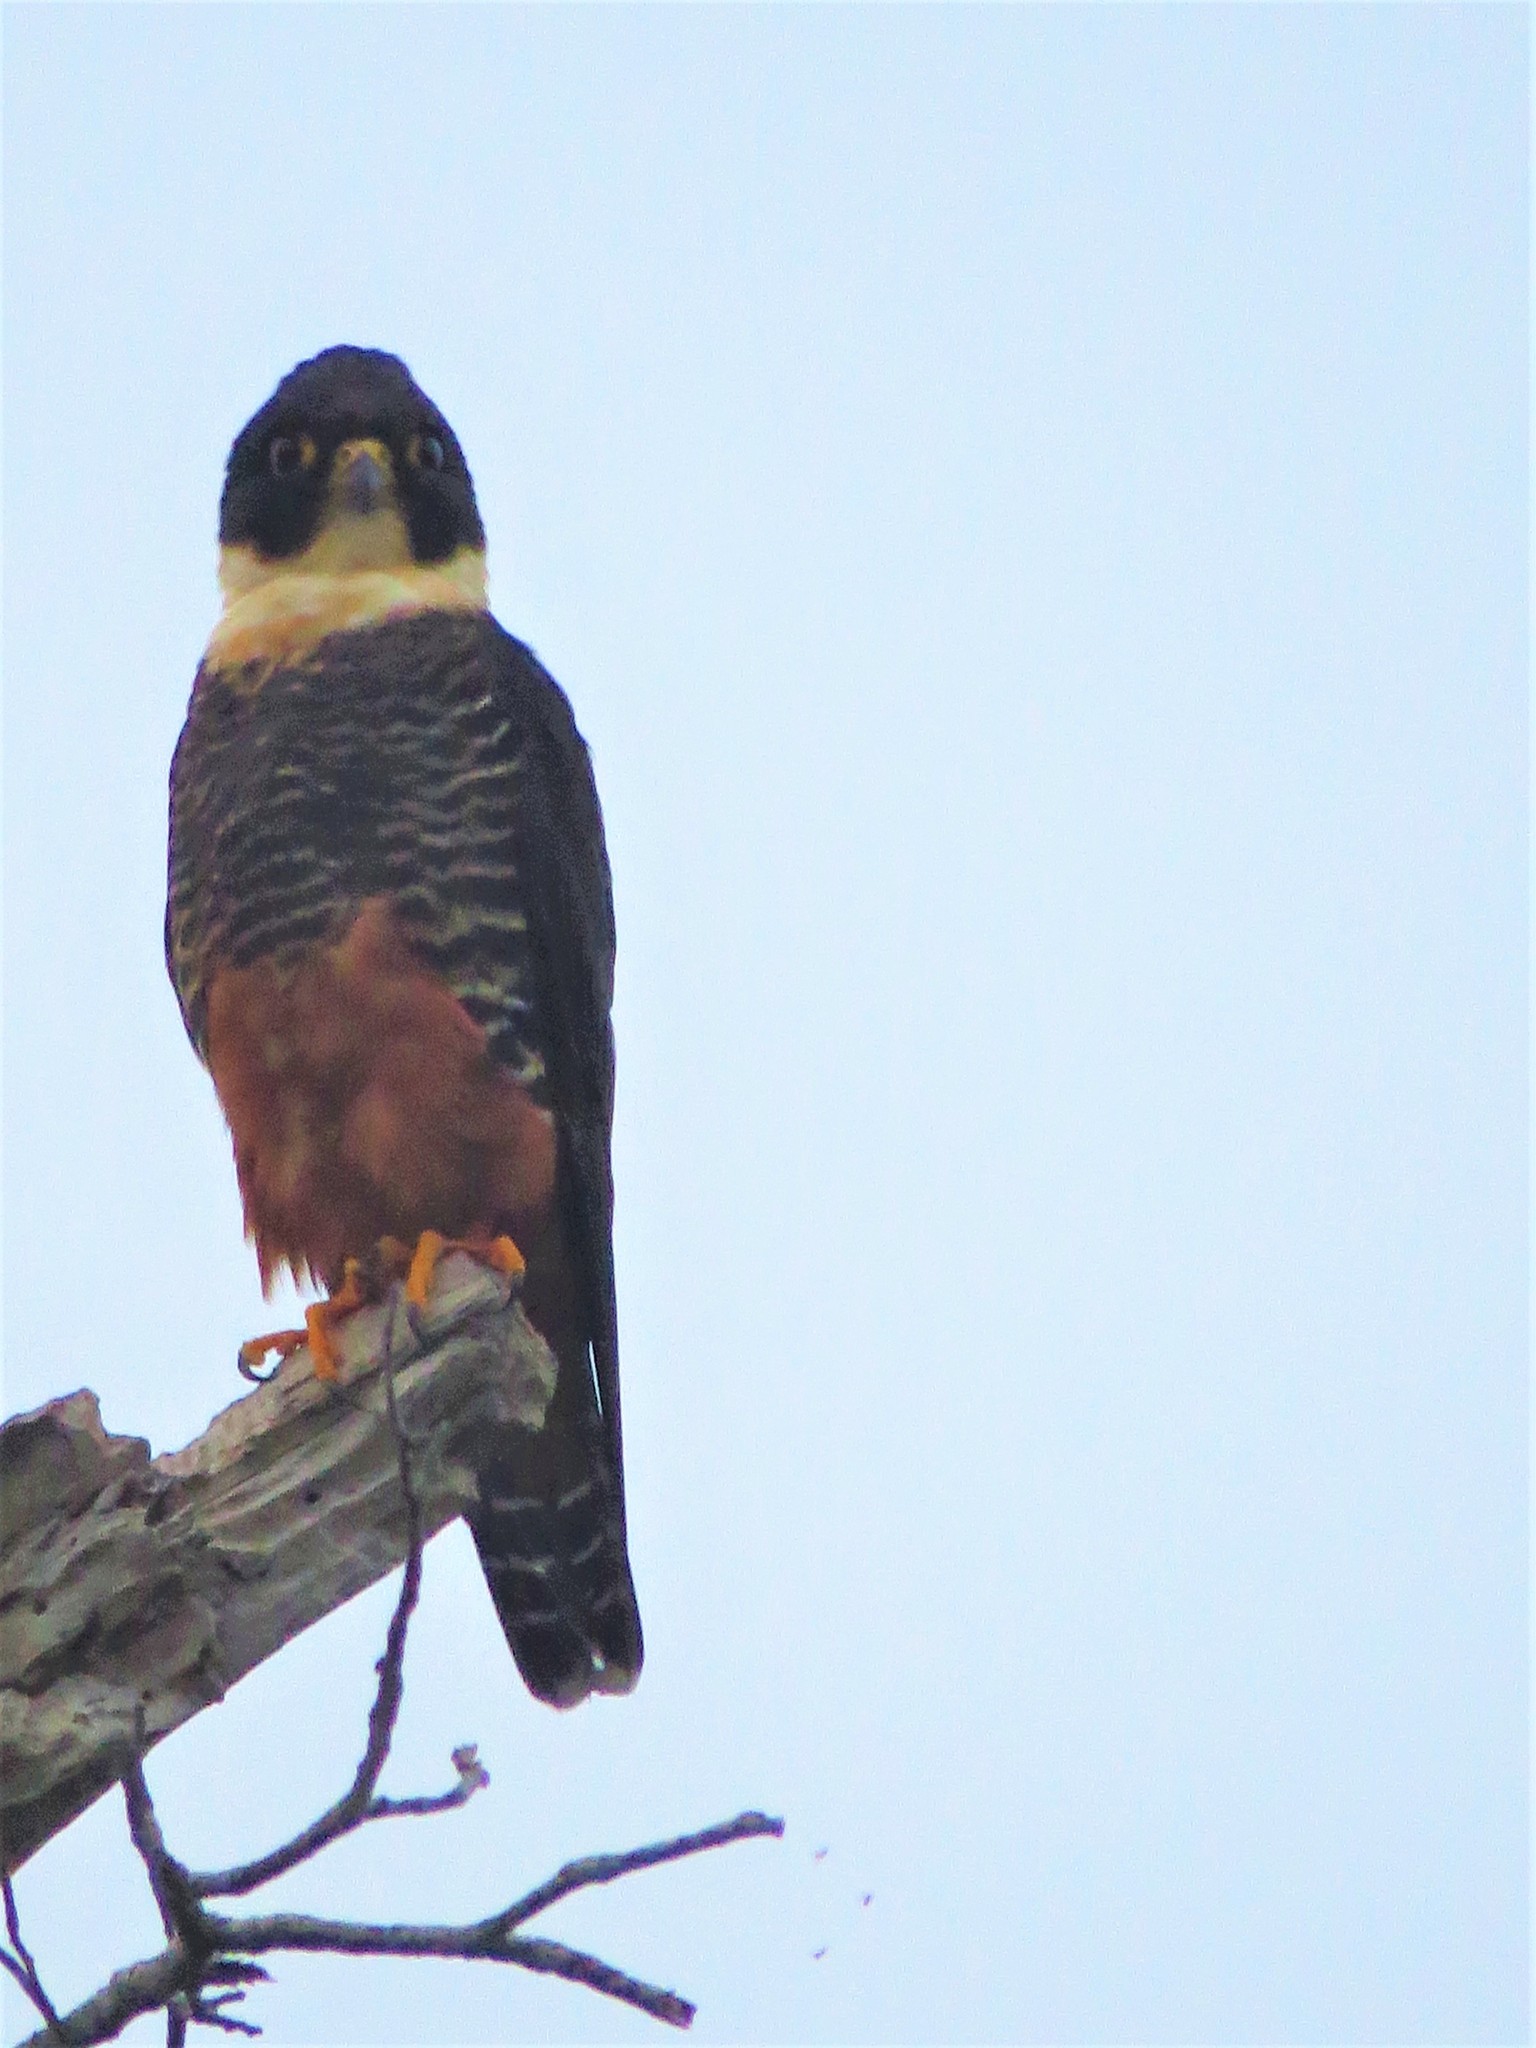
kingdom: Animalia
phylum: Chordata
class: Aves
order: Falconiformes
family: Falconidae
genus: Falco
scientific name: Falco rufigularis
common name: Bat falcon
